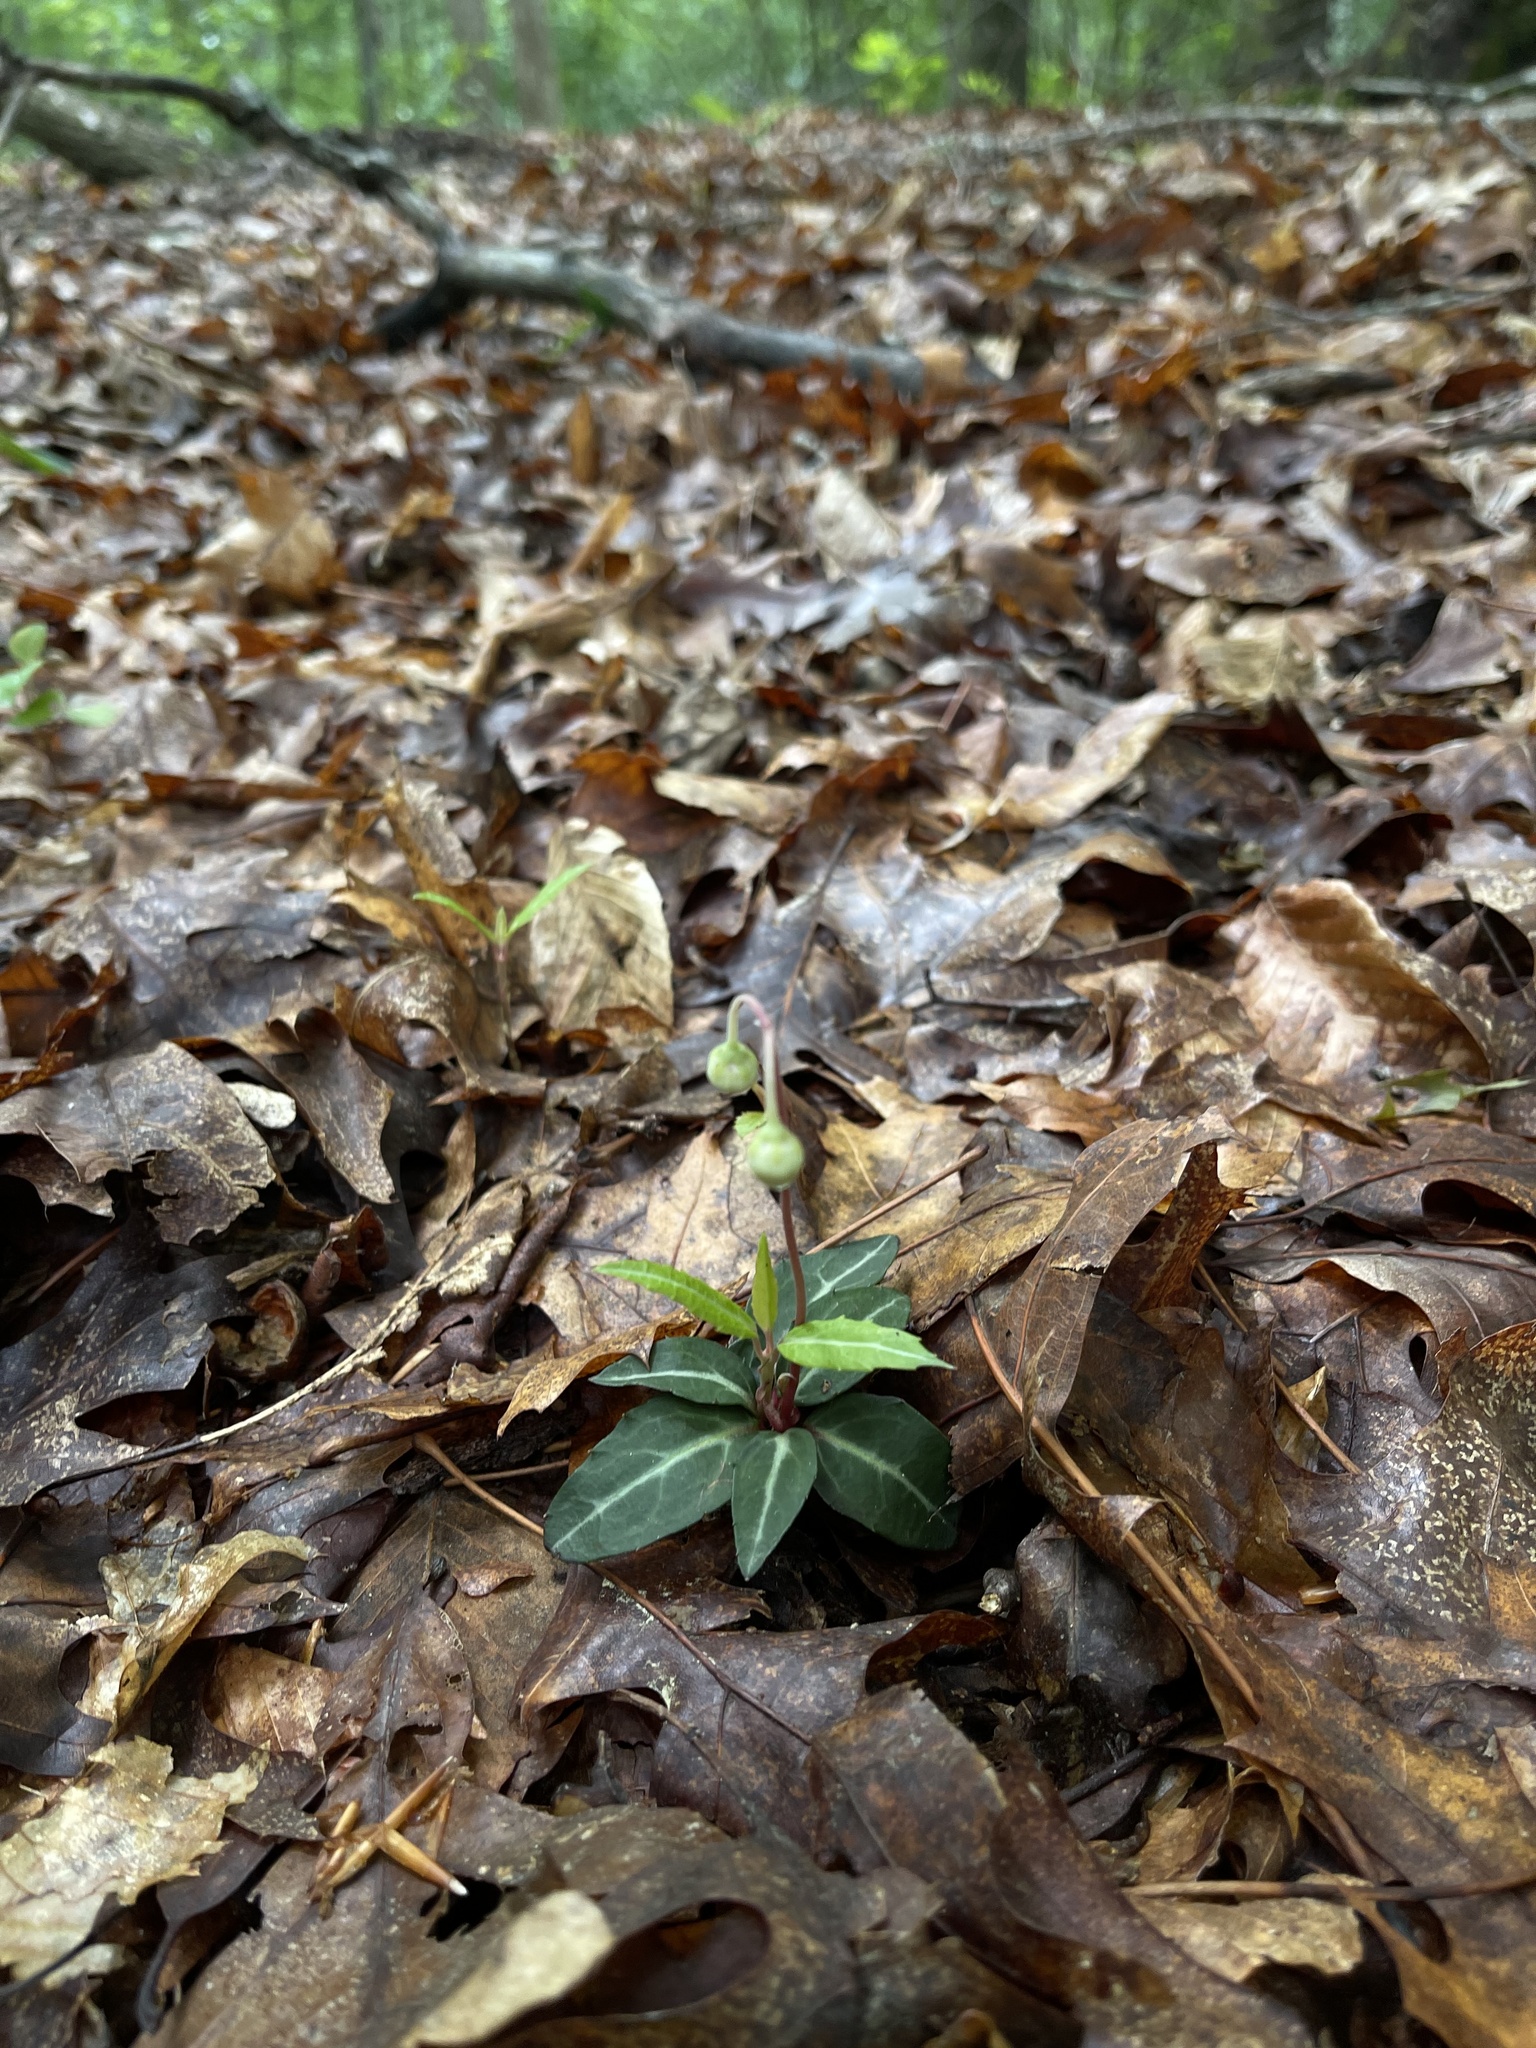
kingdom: Plantae
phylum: Tracheophyta
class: Magnoliopsida
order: Ericales
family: Ericaceae
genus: Chimaphila
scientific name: Chimaphila maculata
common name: Spotted pipsissewa
